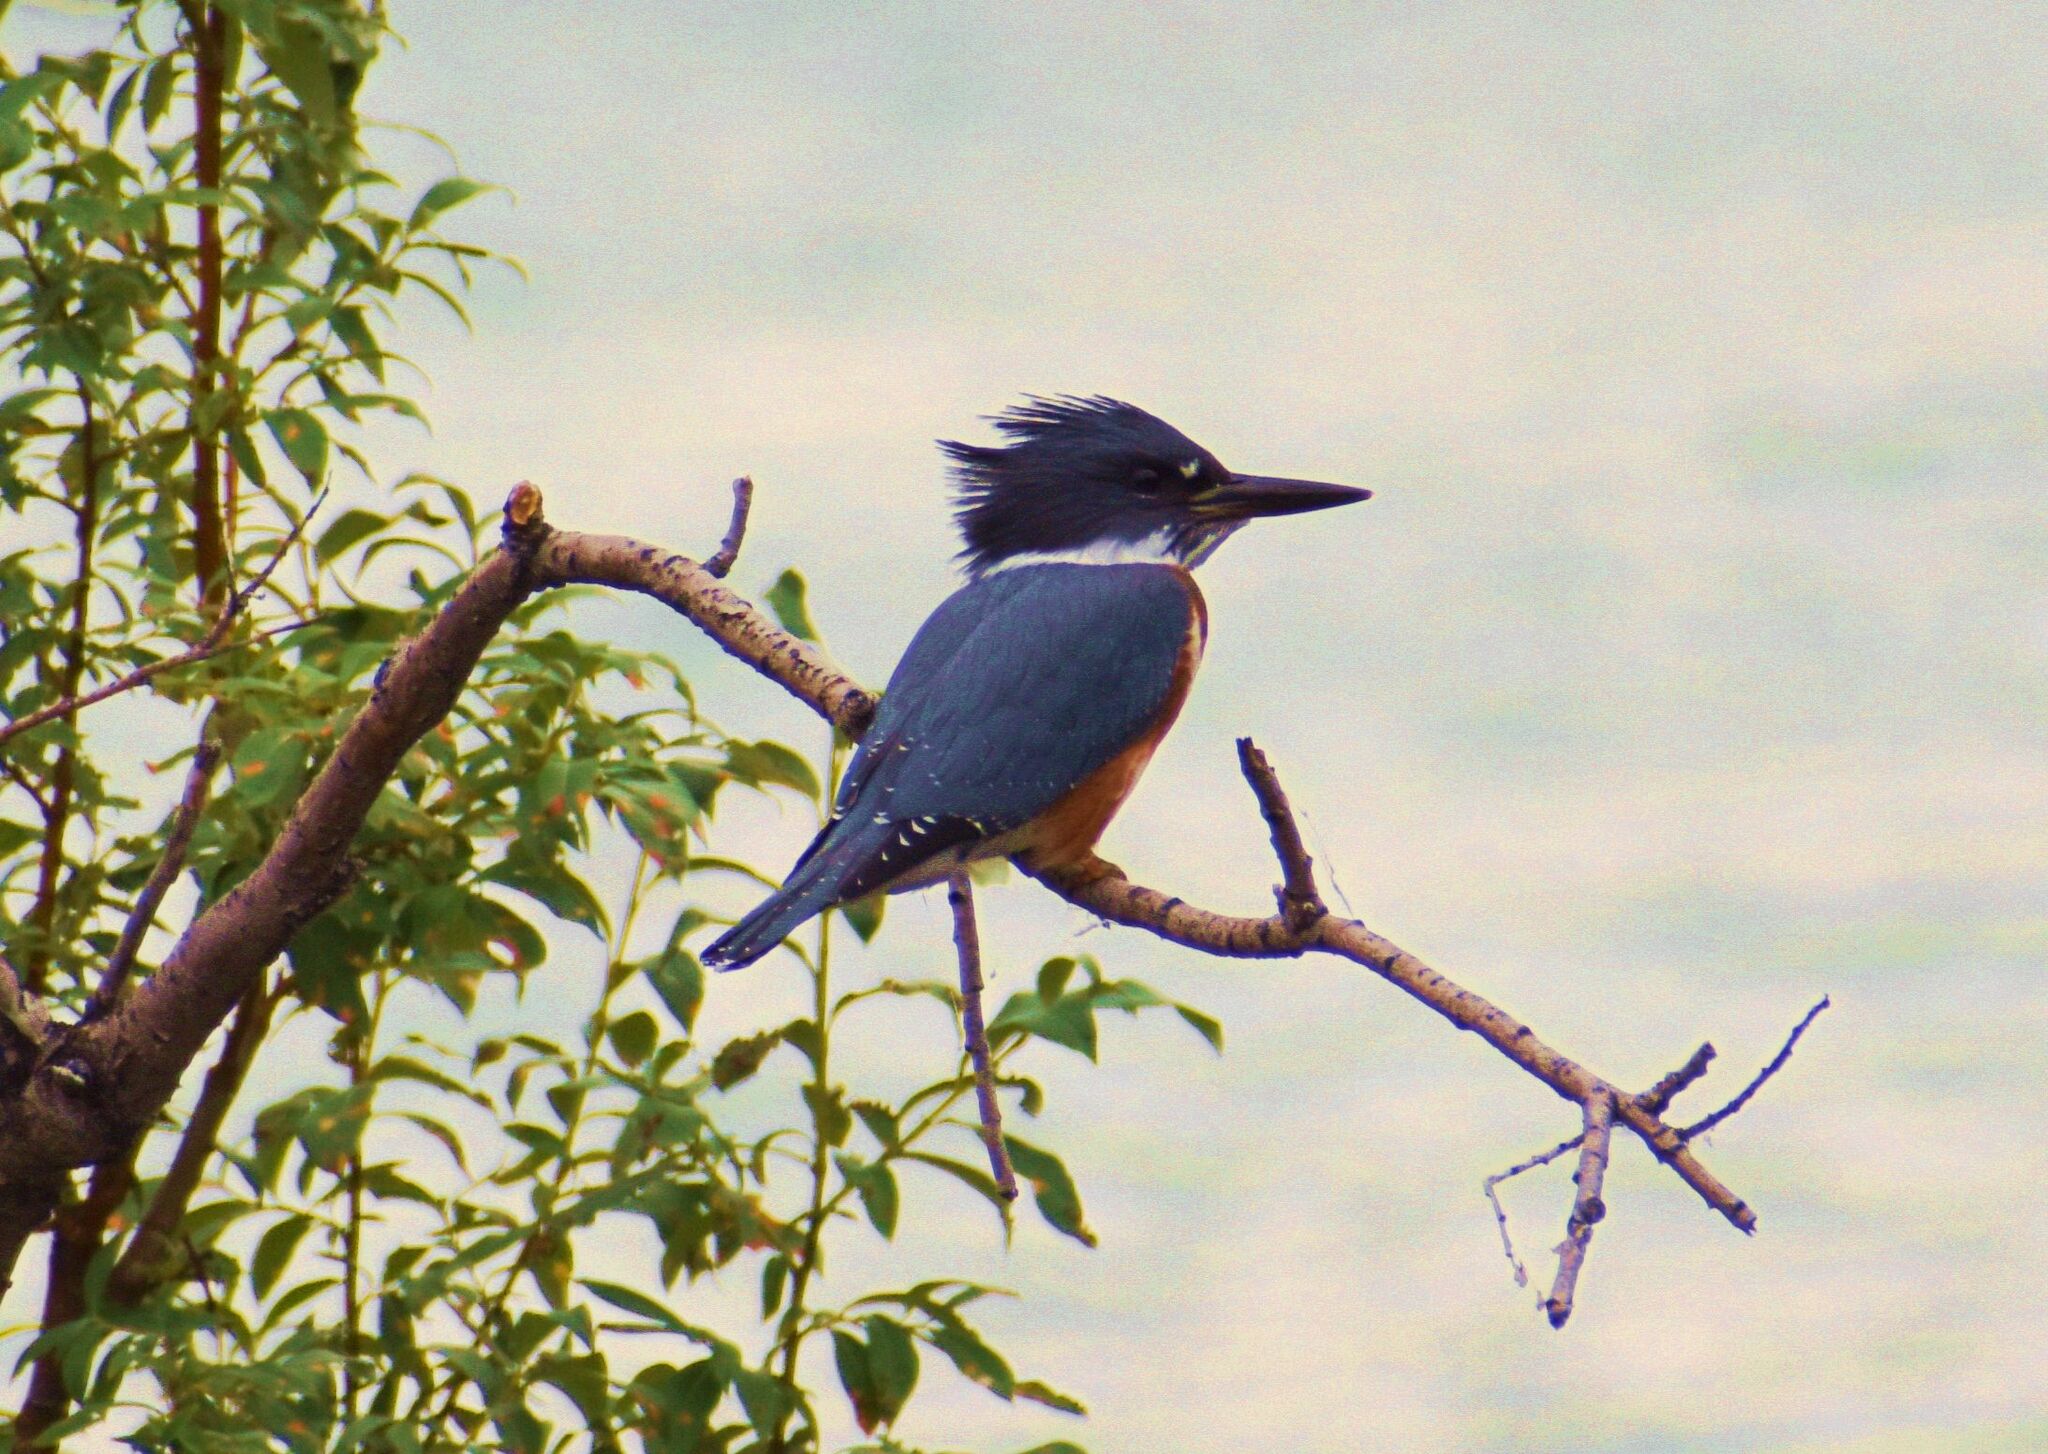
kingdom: Animalia
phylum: Chordata
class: Aves
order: Coraciiformes
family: Alcedinidae
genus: Megaceryle
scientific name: Megaceryle alcyon
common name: Belted kingfisher
